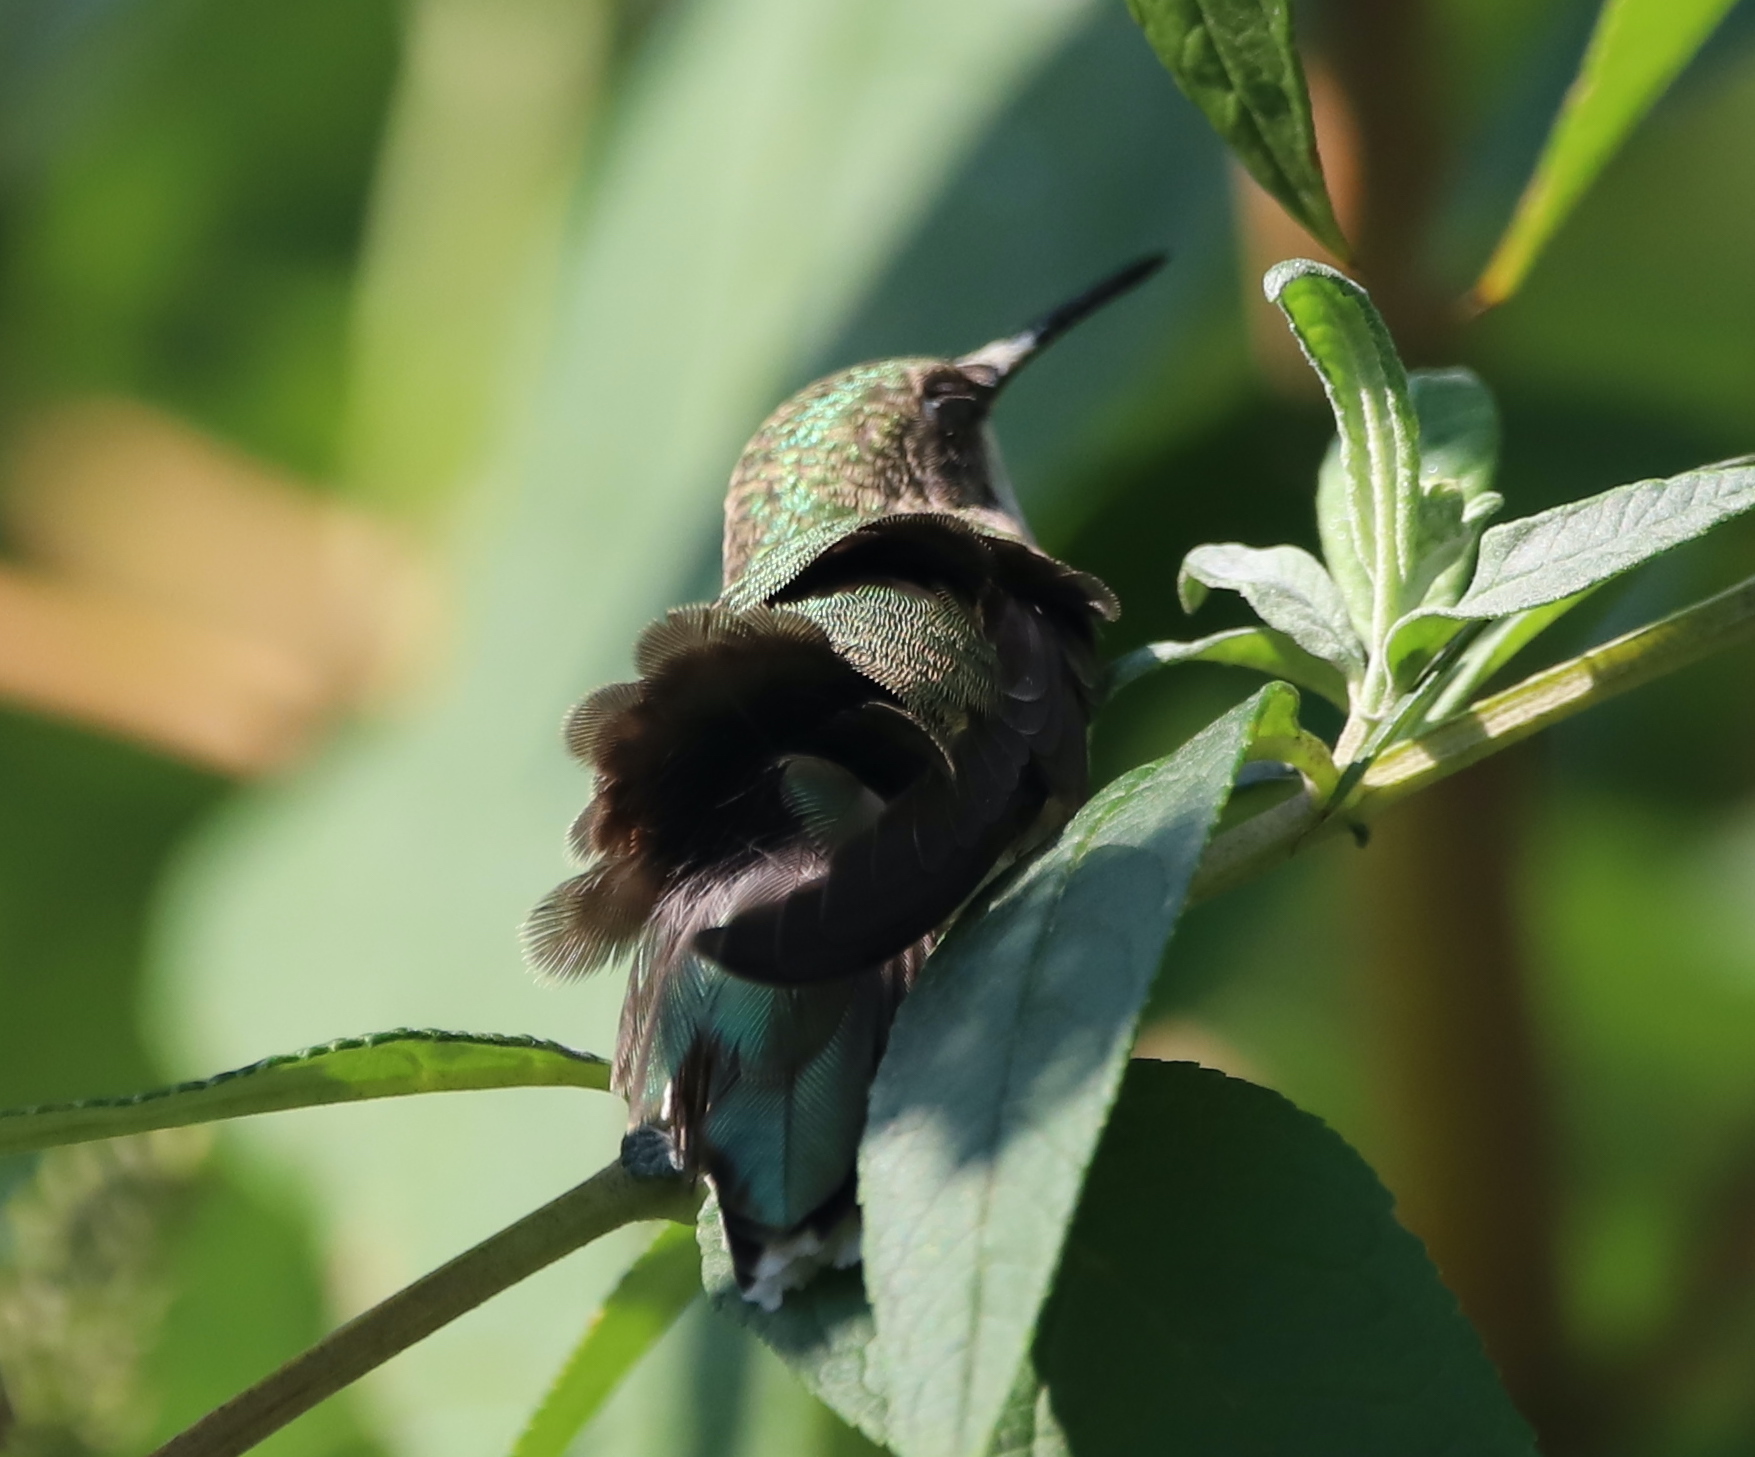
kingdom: Animalia
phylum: Chordata
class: Aves
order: Apodiformes
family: Trochilidae
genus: Archilochus
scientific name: Archilochus colubris
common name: Ruby-throated hummingbird
